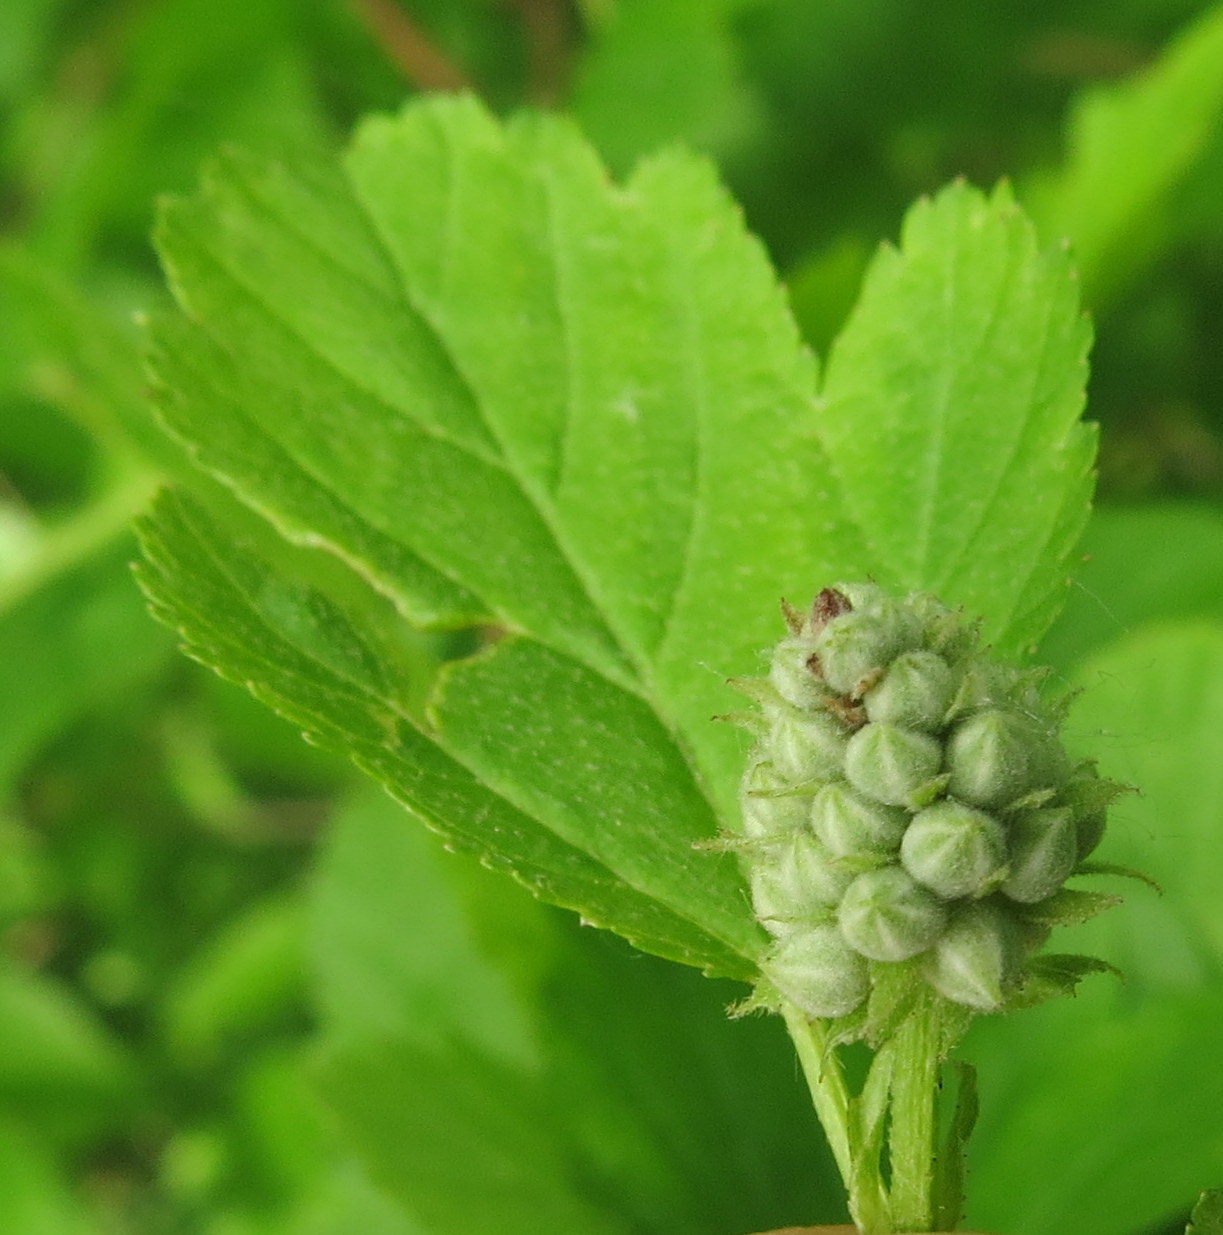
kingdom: Plantae
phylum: Tracheophyta
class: Magnoliopsida
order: Rosales
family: Rosaceae
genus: Physocarpus
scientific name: Physocarpus opulifolius
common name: Ninebark
